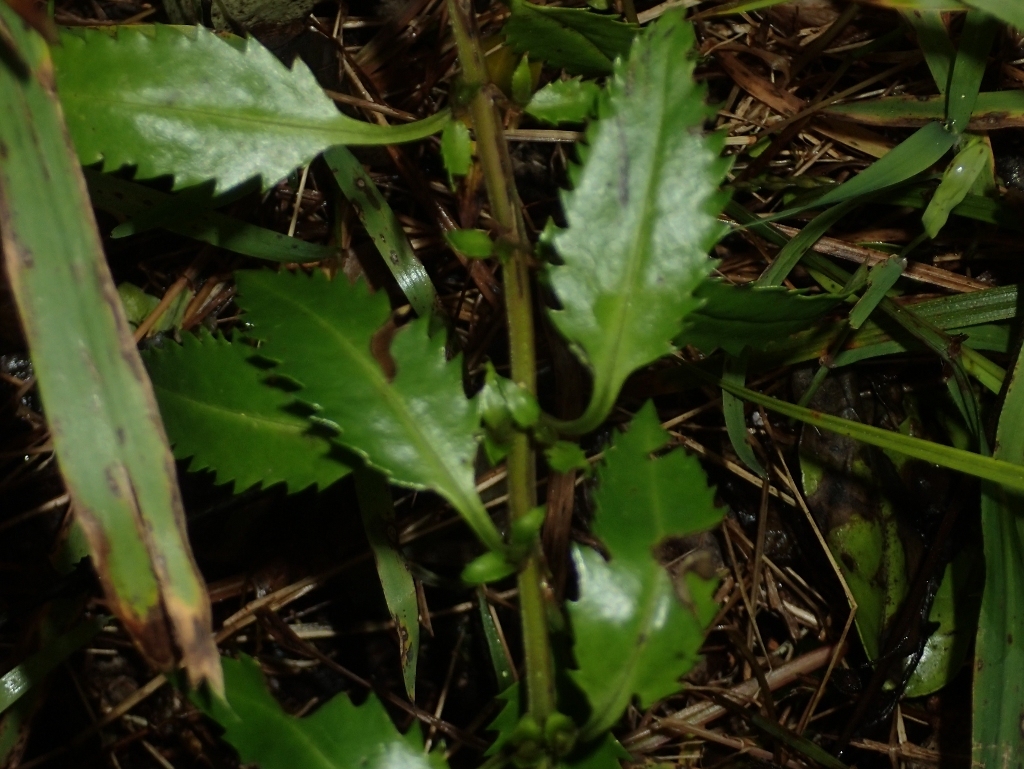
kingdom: Plantae
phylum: Tracheophyta
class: Magnoliopsida
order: Saxifragales
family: Haloragaceae
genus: Haloragis
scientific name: Haloragis erecta
